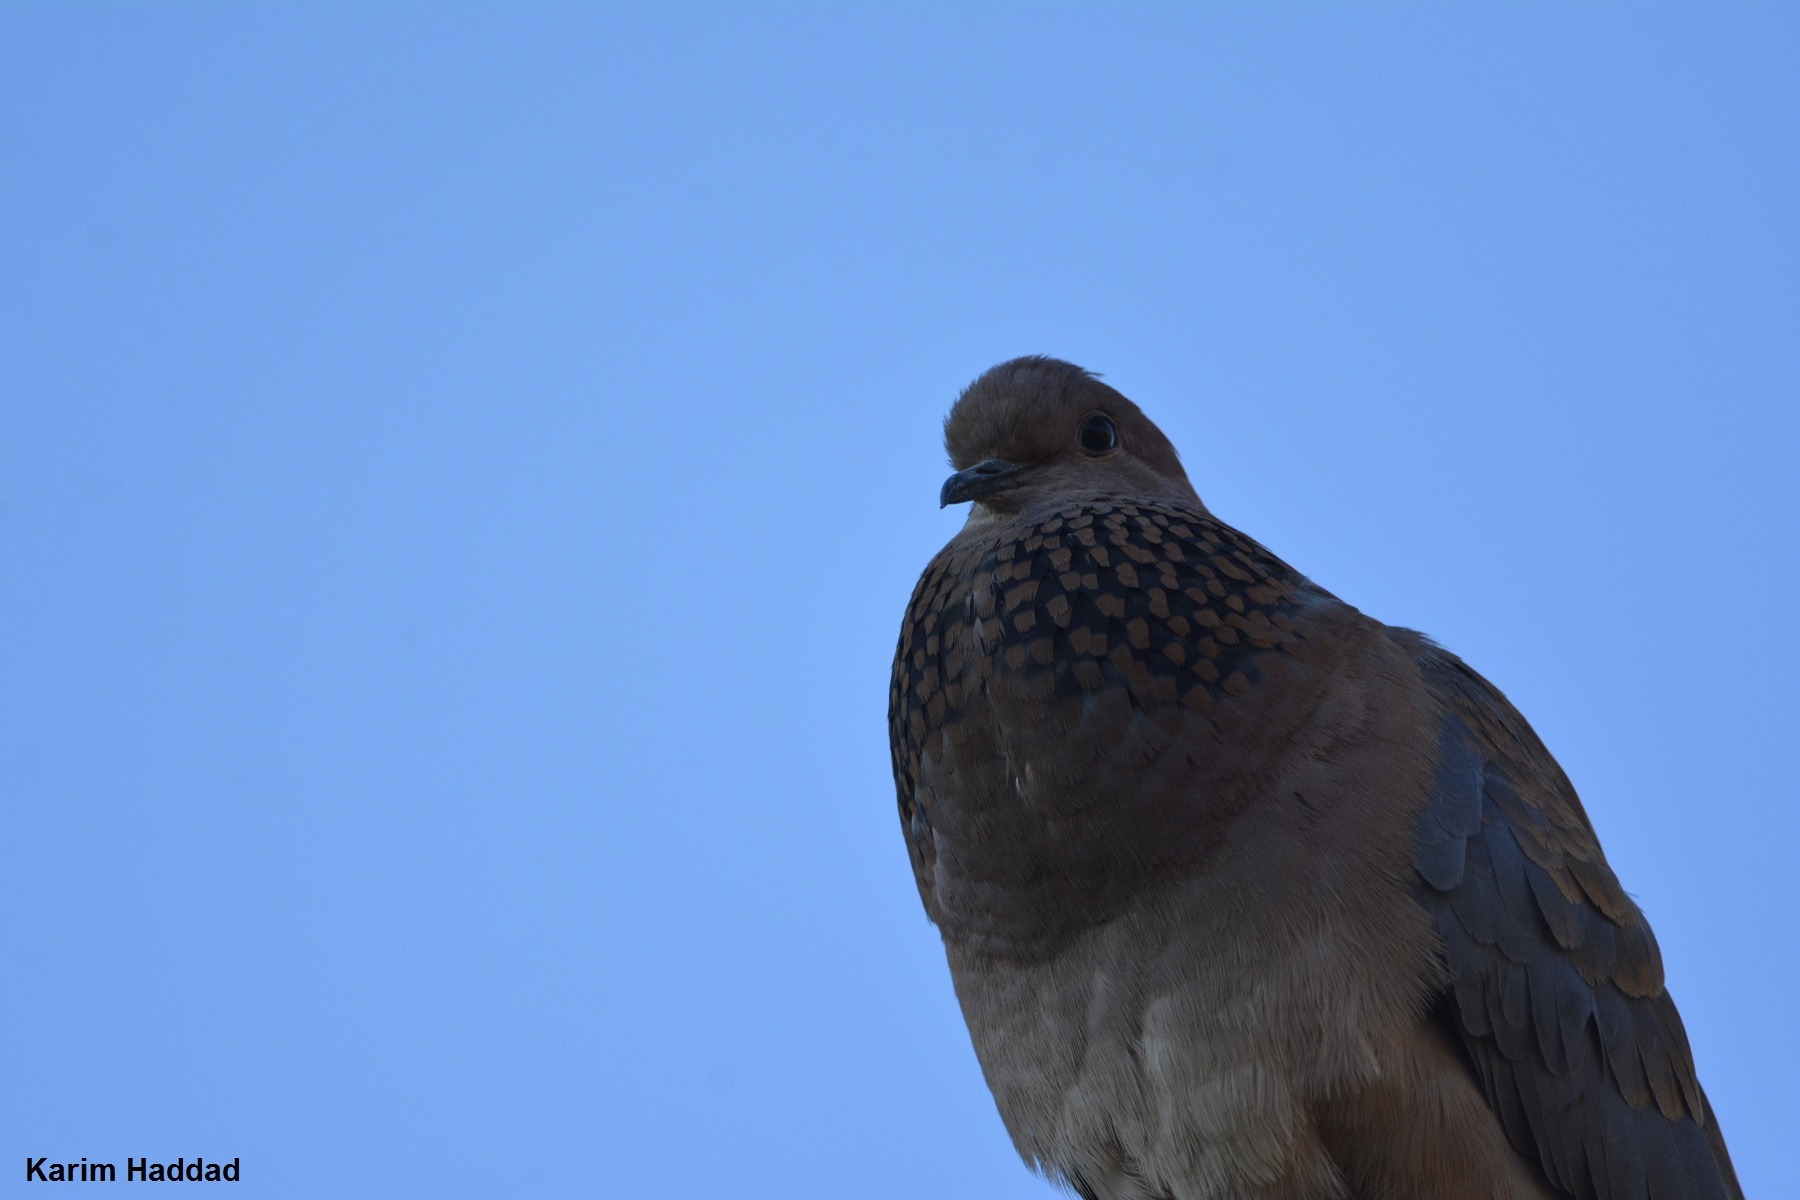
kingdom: Animalia
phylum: Chordata
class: Aves
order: Columbiformes
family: Columbidae
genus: Spilopelia
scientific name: Spilopelia senegalensis
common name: Laughing dove
